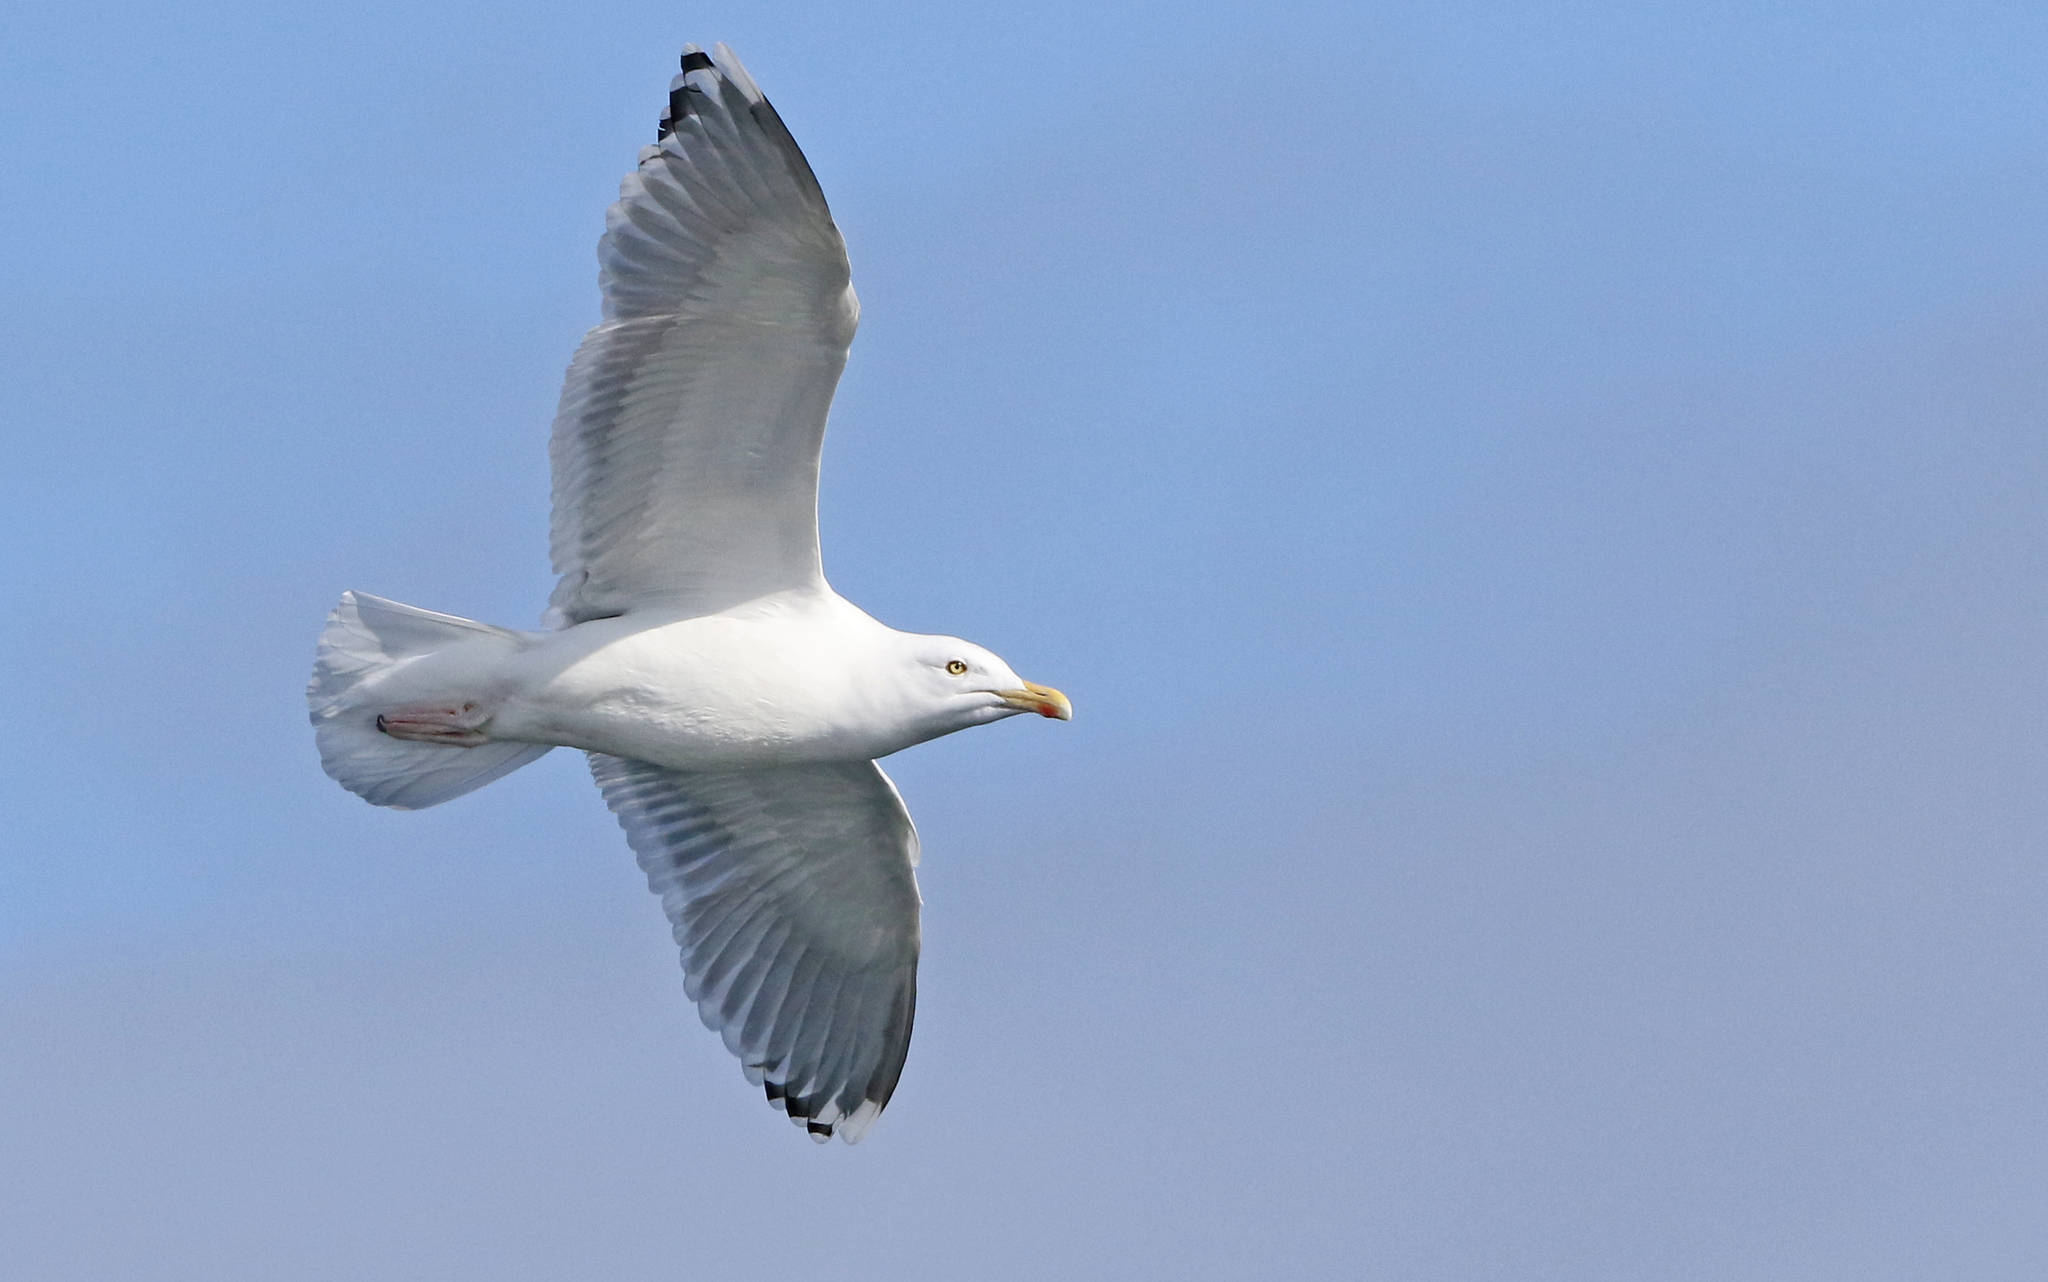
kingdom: Animalia
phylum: Chordata
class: Aves
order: Charadriiformes
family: Laridae
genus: Larus
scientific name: Larus argentatus
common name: Herring gull
